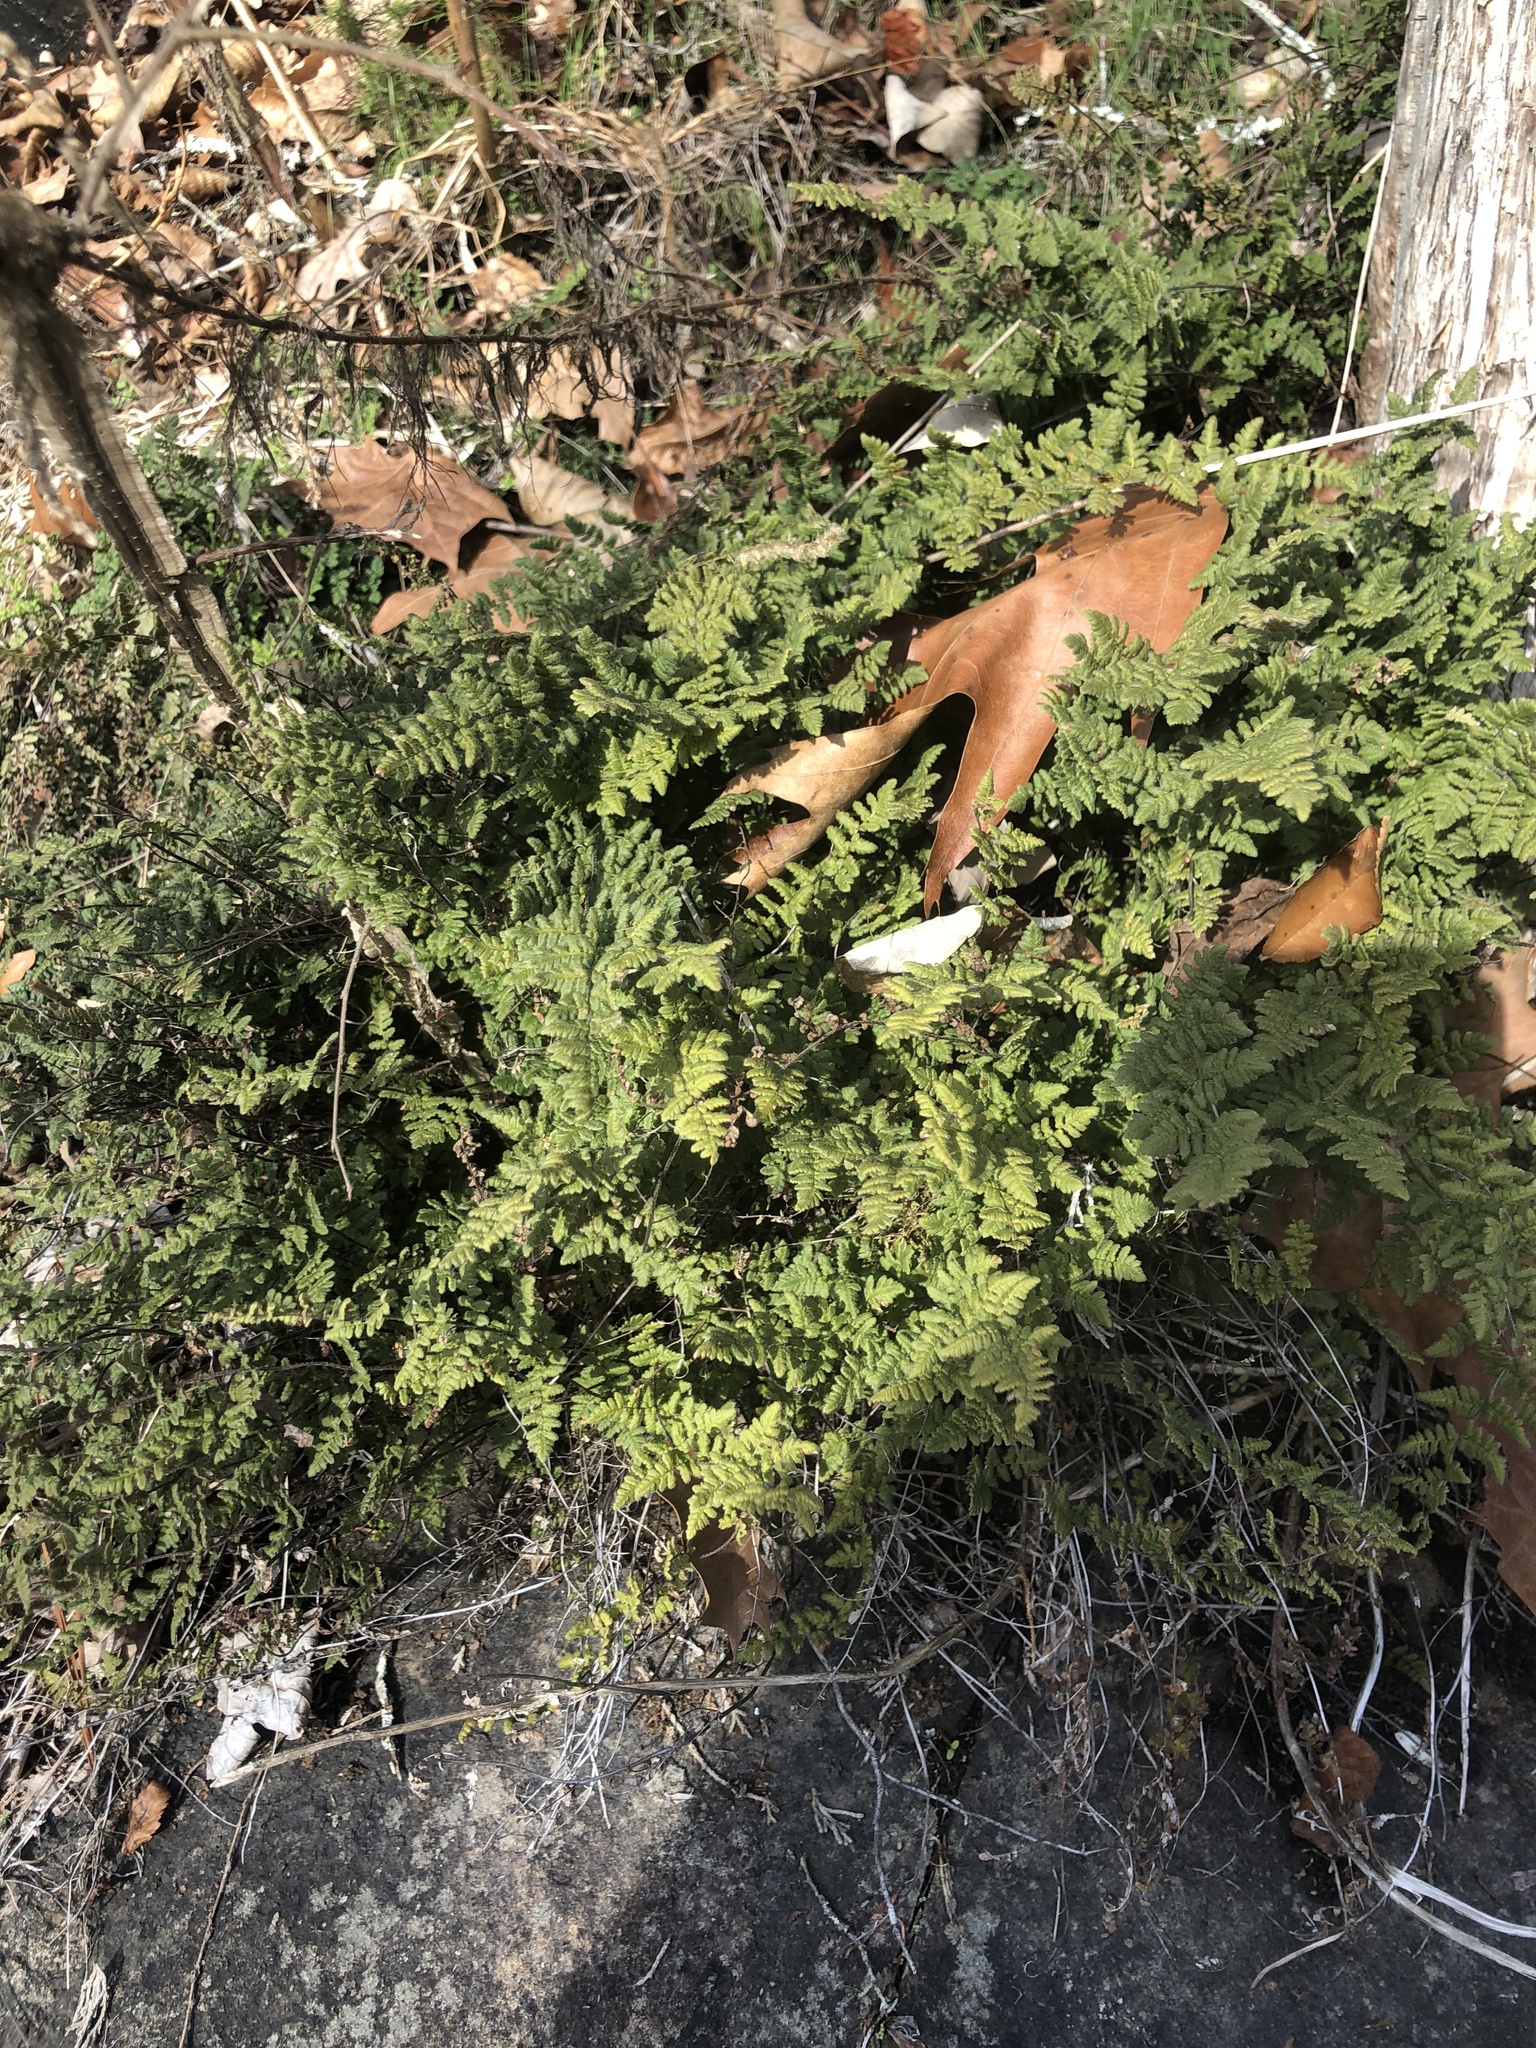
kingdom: Plantae
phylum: Tracheophyta
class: Polypodiopsida
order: Polypodiales
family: Pteridaceae
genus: Myriopteris
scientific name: Myriopteris lanosa
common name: Hairy lip fern
